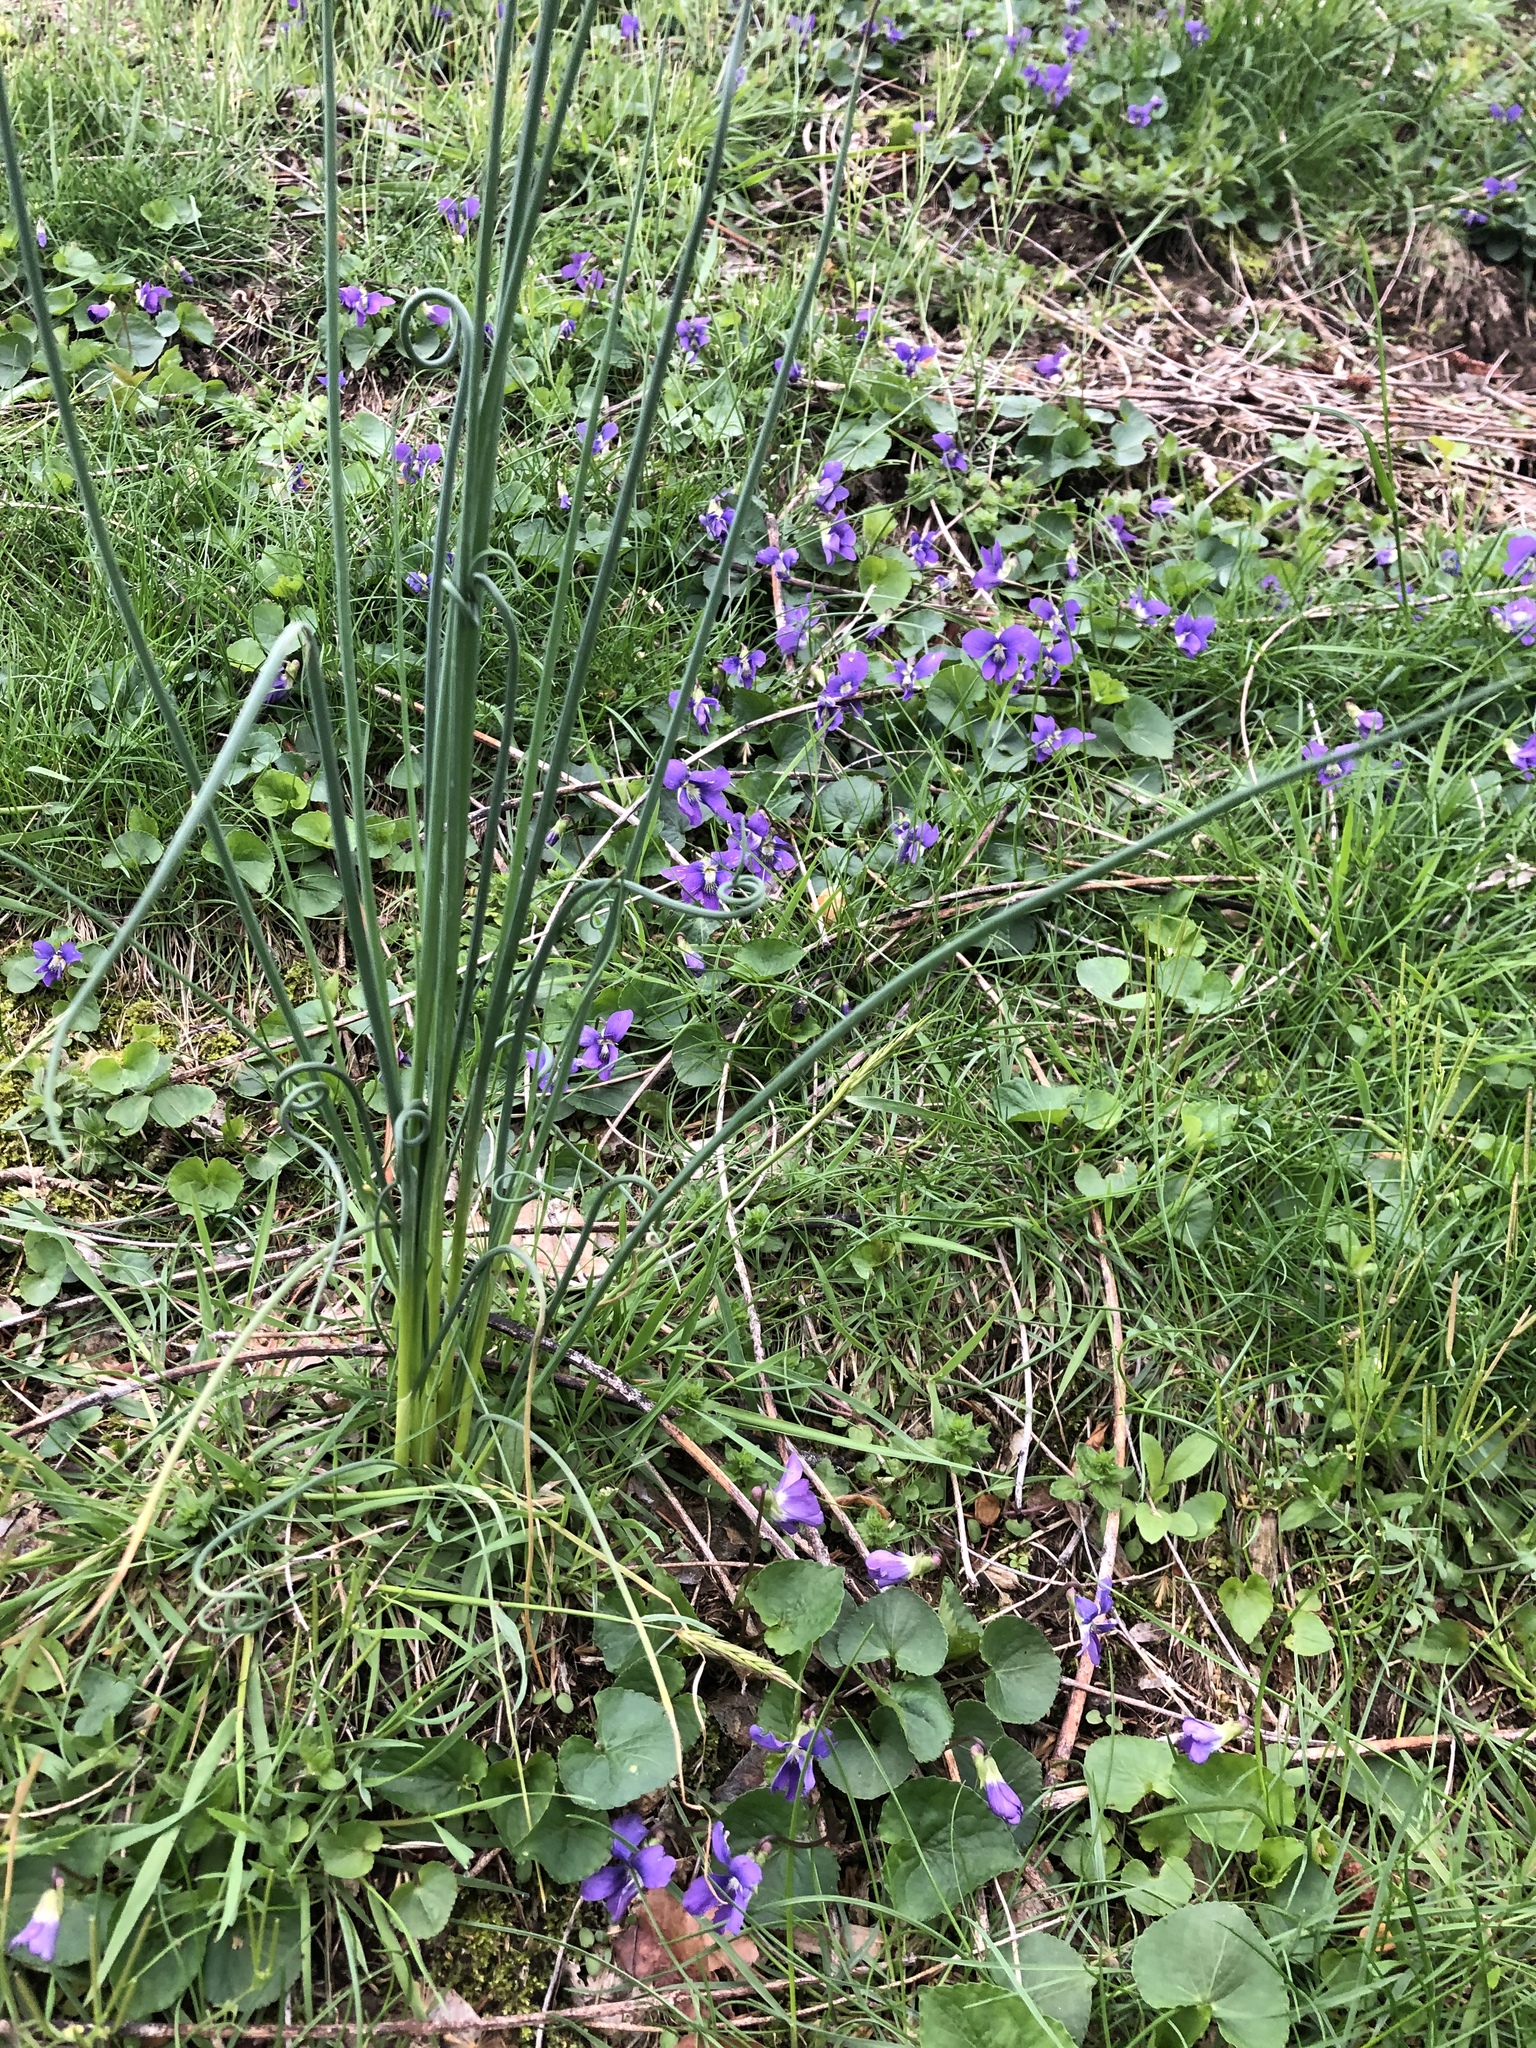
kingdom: Plantae
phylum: Tracheophyta
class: Liliopsida
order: Asparagales
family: Amaryllidaceae
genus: Allium
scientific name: Allium vineale
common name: Crow garlic
